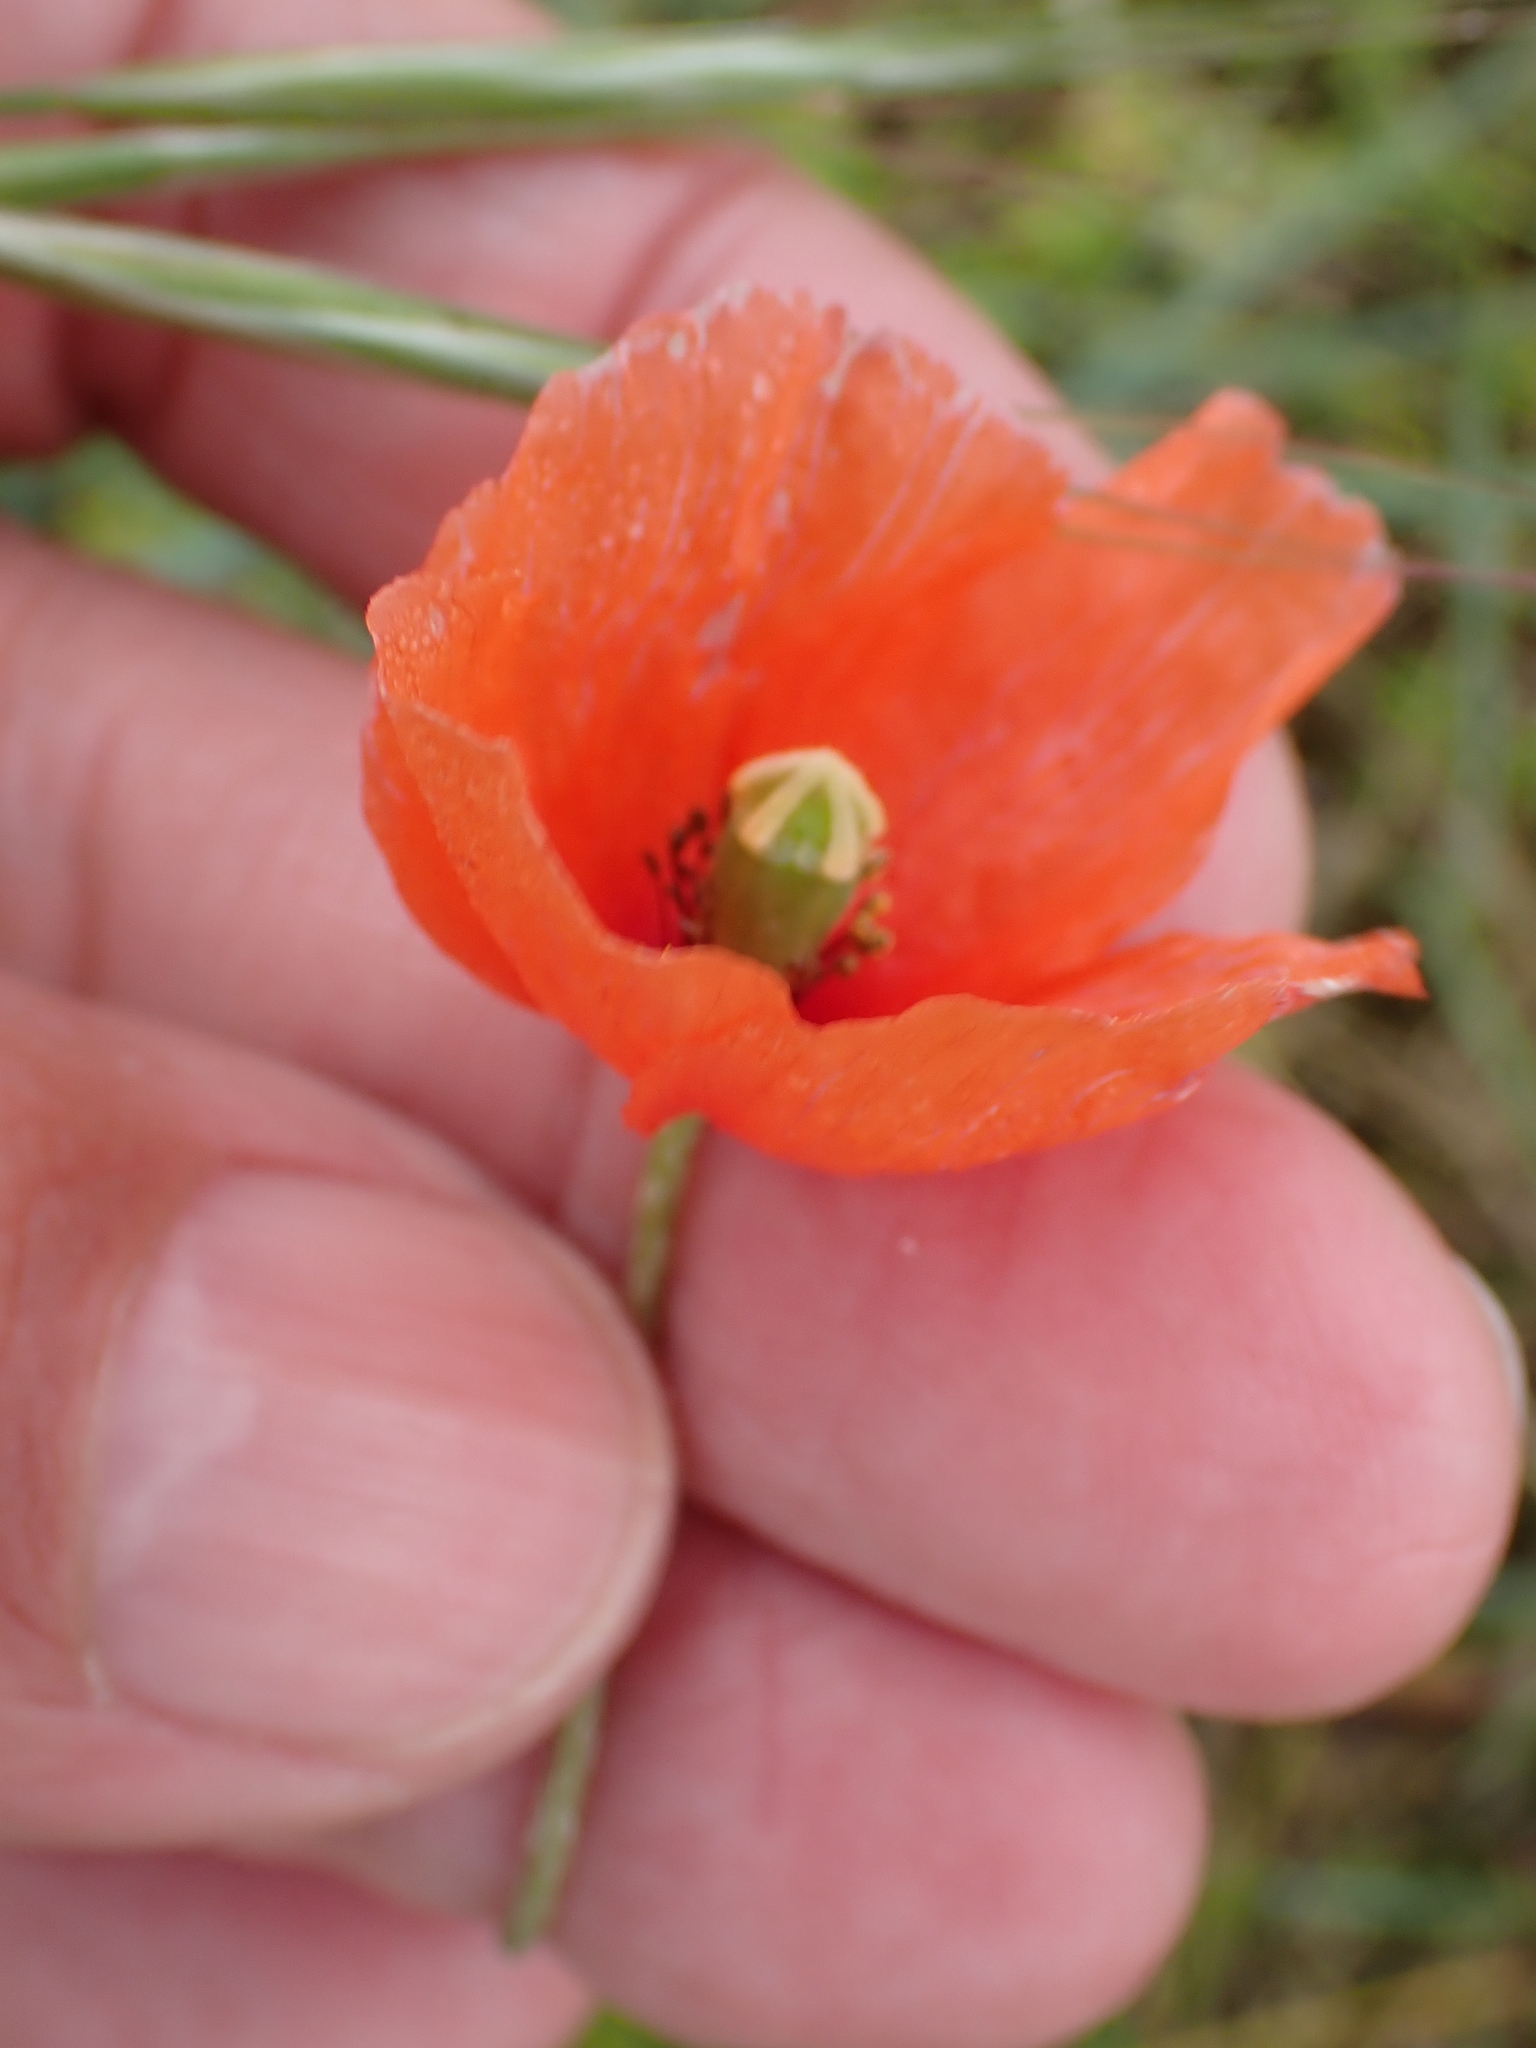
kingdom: Plantae
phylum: Tracheophyta
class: Magnoliopsida
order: Ranunculales
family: Papaveraceae
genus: Papaver
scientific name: Papaver dubium
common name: Long-headed poppy
